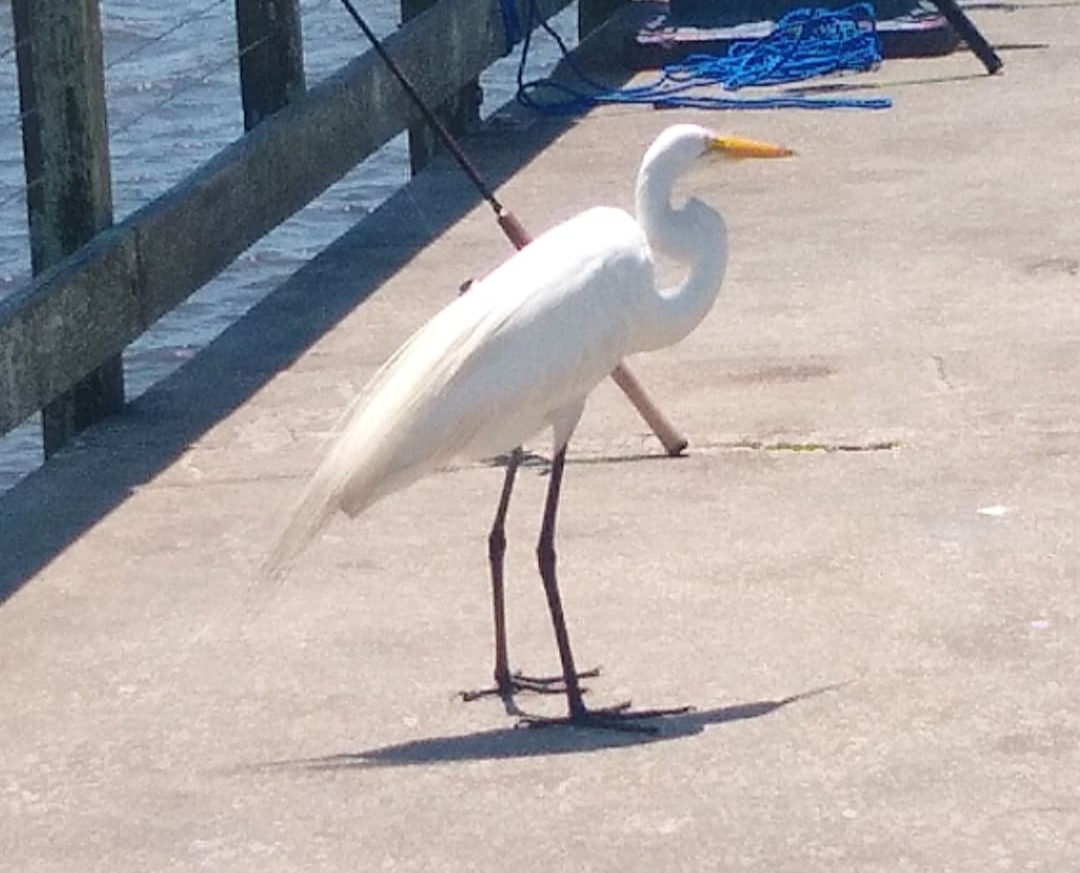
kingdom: Animalia
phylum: Chordata
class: Aves
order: Pelecaniformes
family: Ardeidae
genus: Ardea
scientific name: Ardea alba
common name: Great egret
